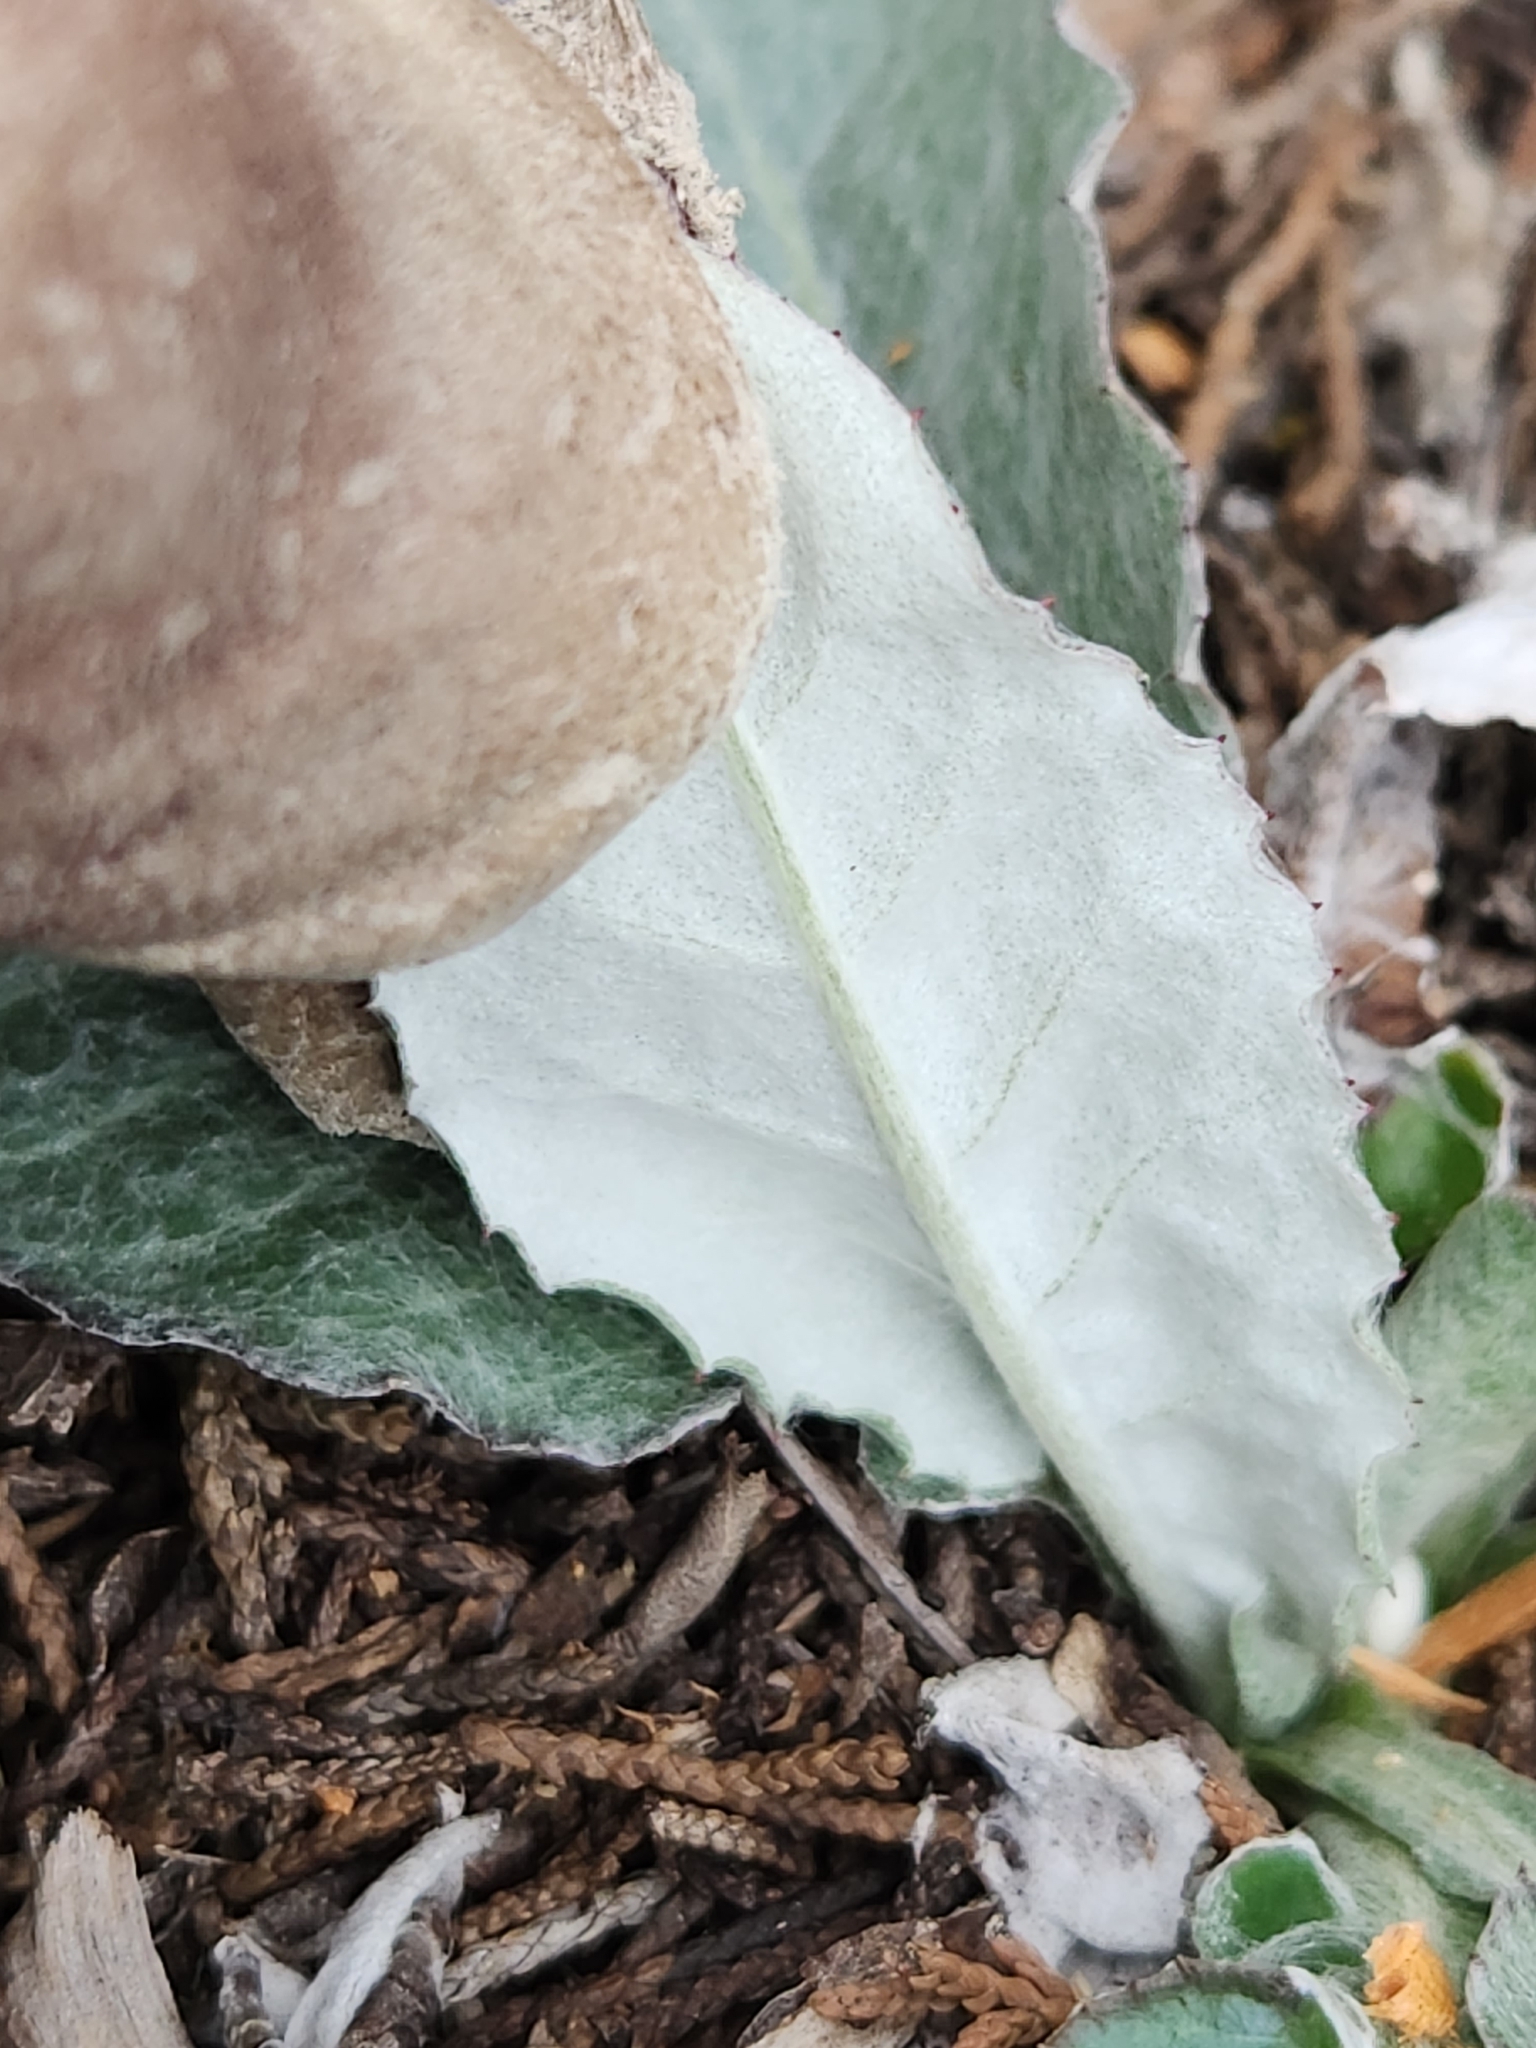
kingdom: Plantae
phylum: Tracheophyta
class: Magnoliopsida
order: Asterales
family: Asteraceae
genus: Chaptalia
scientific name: Chaptalia texana
